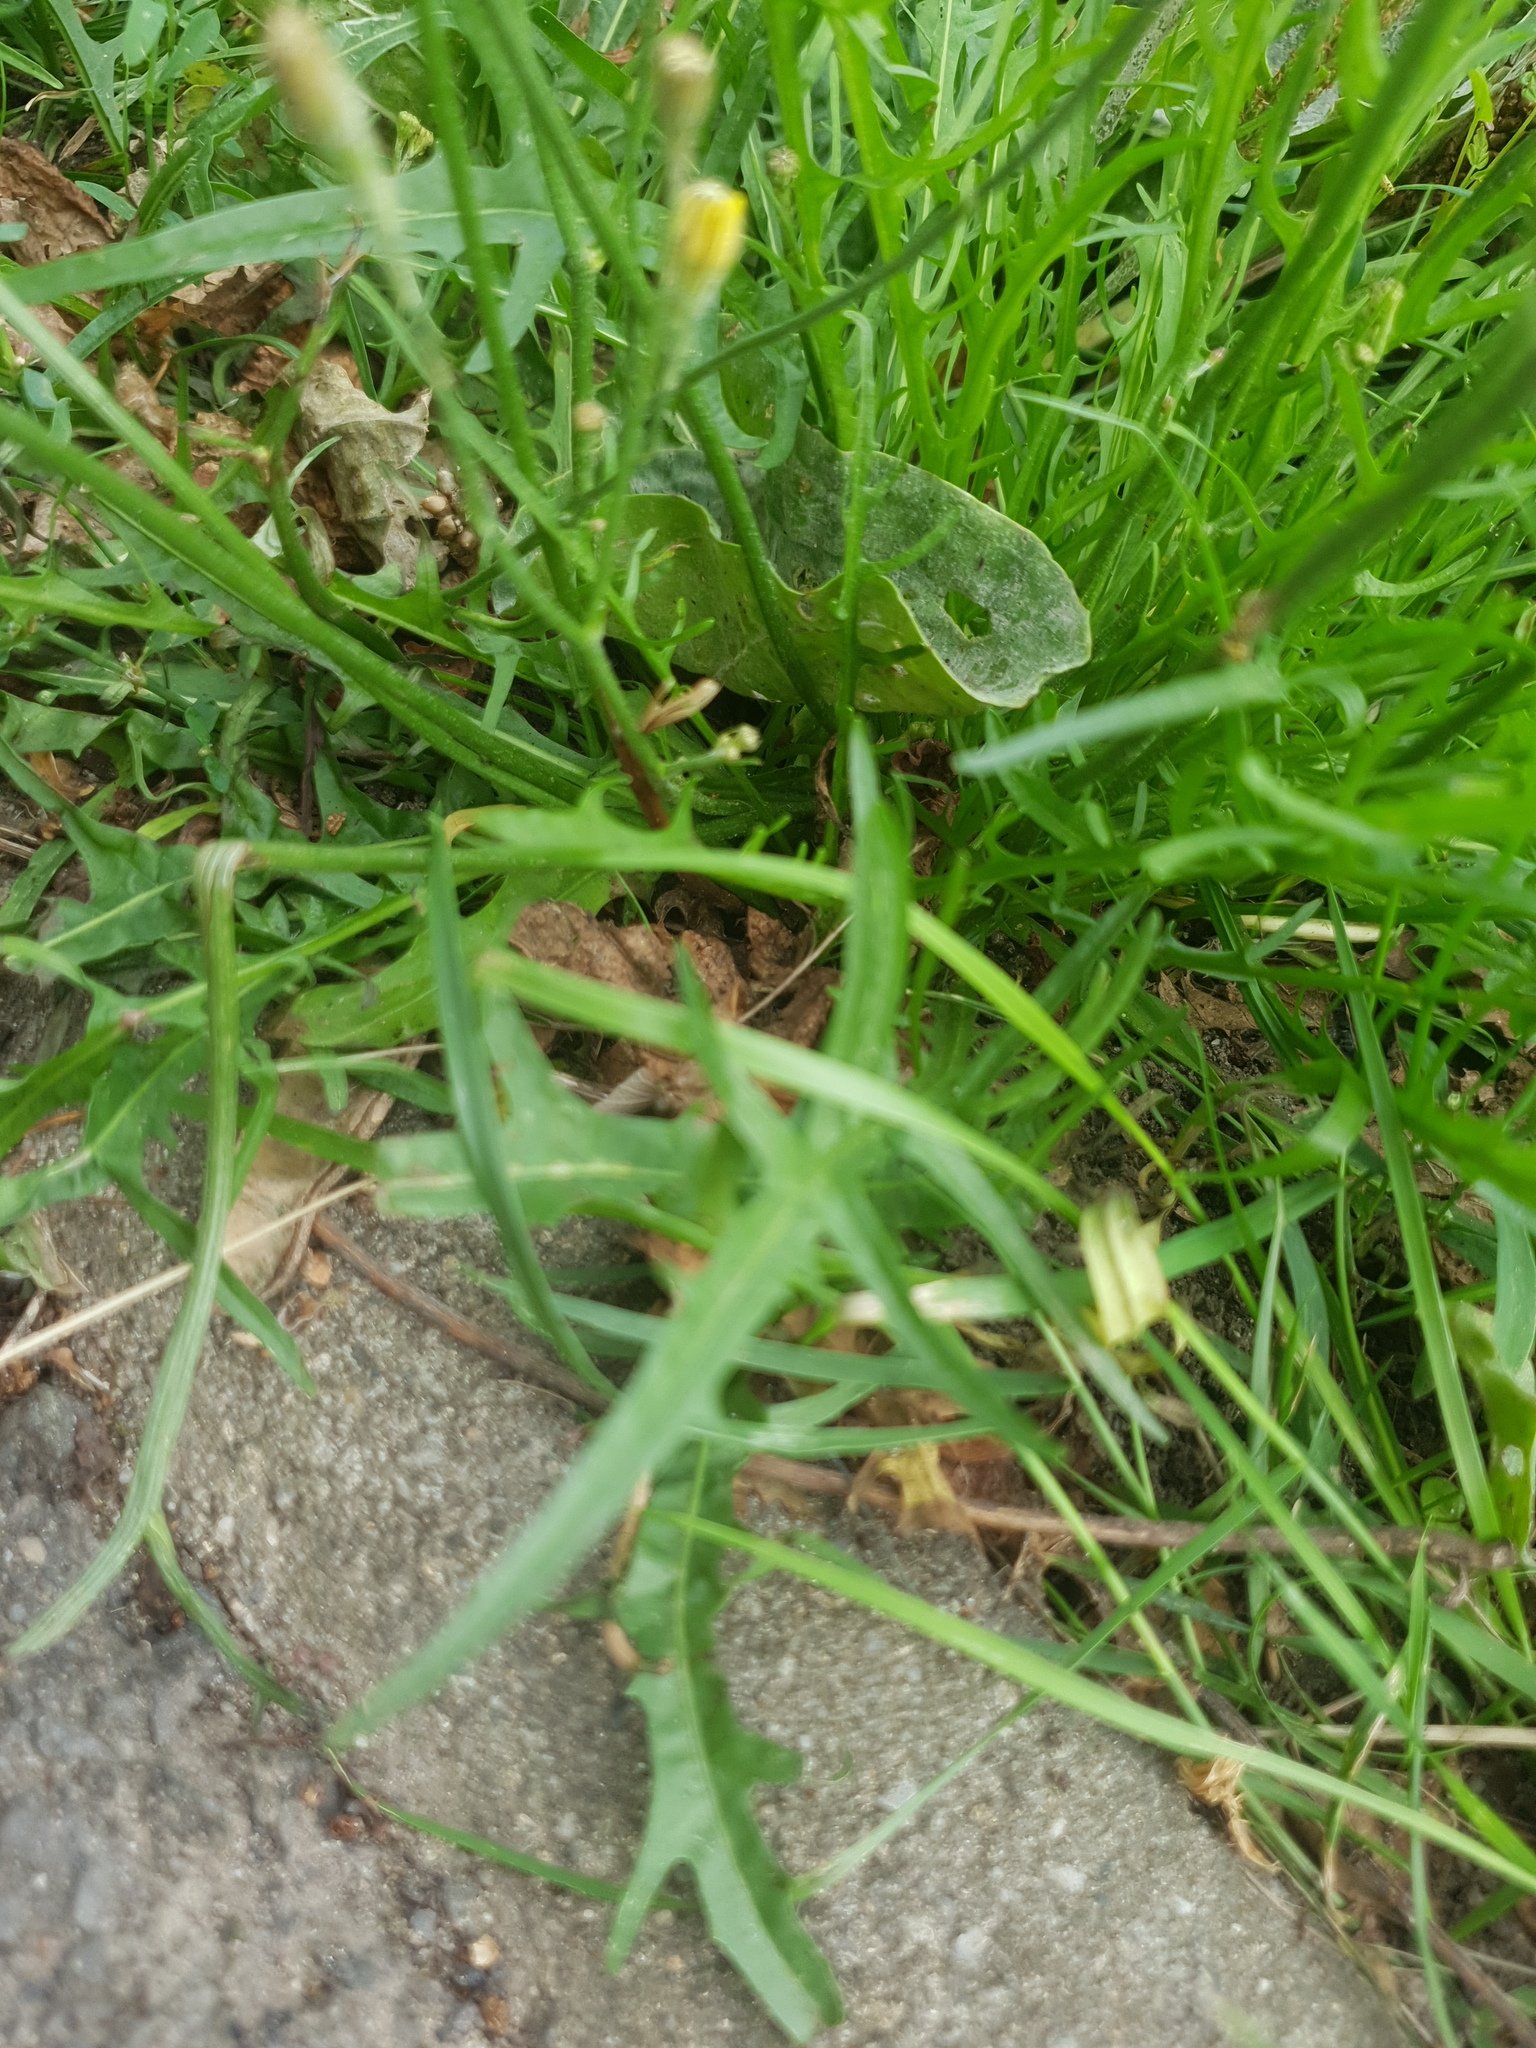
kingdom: Plantae
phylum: Tracheophyta
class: Magnoliopsida
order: Asterales
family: Asteraceae
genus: Scorzoneroides
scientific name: Scorzoneroides autumnalis
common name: Autumn hawkbit
